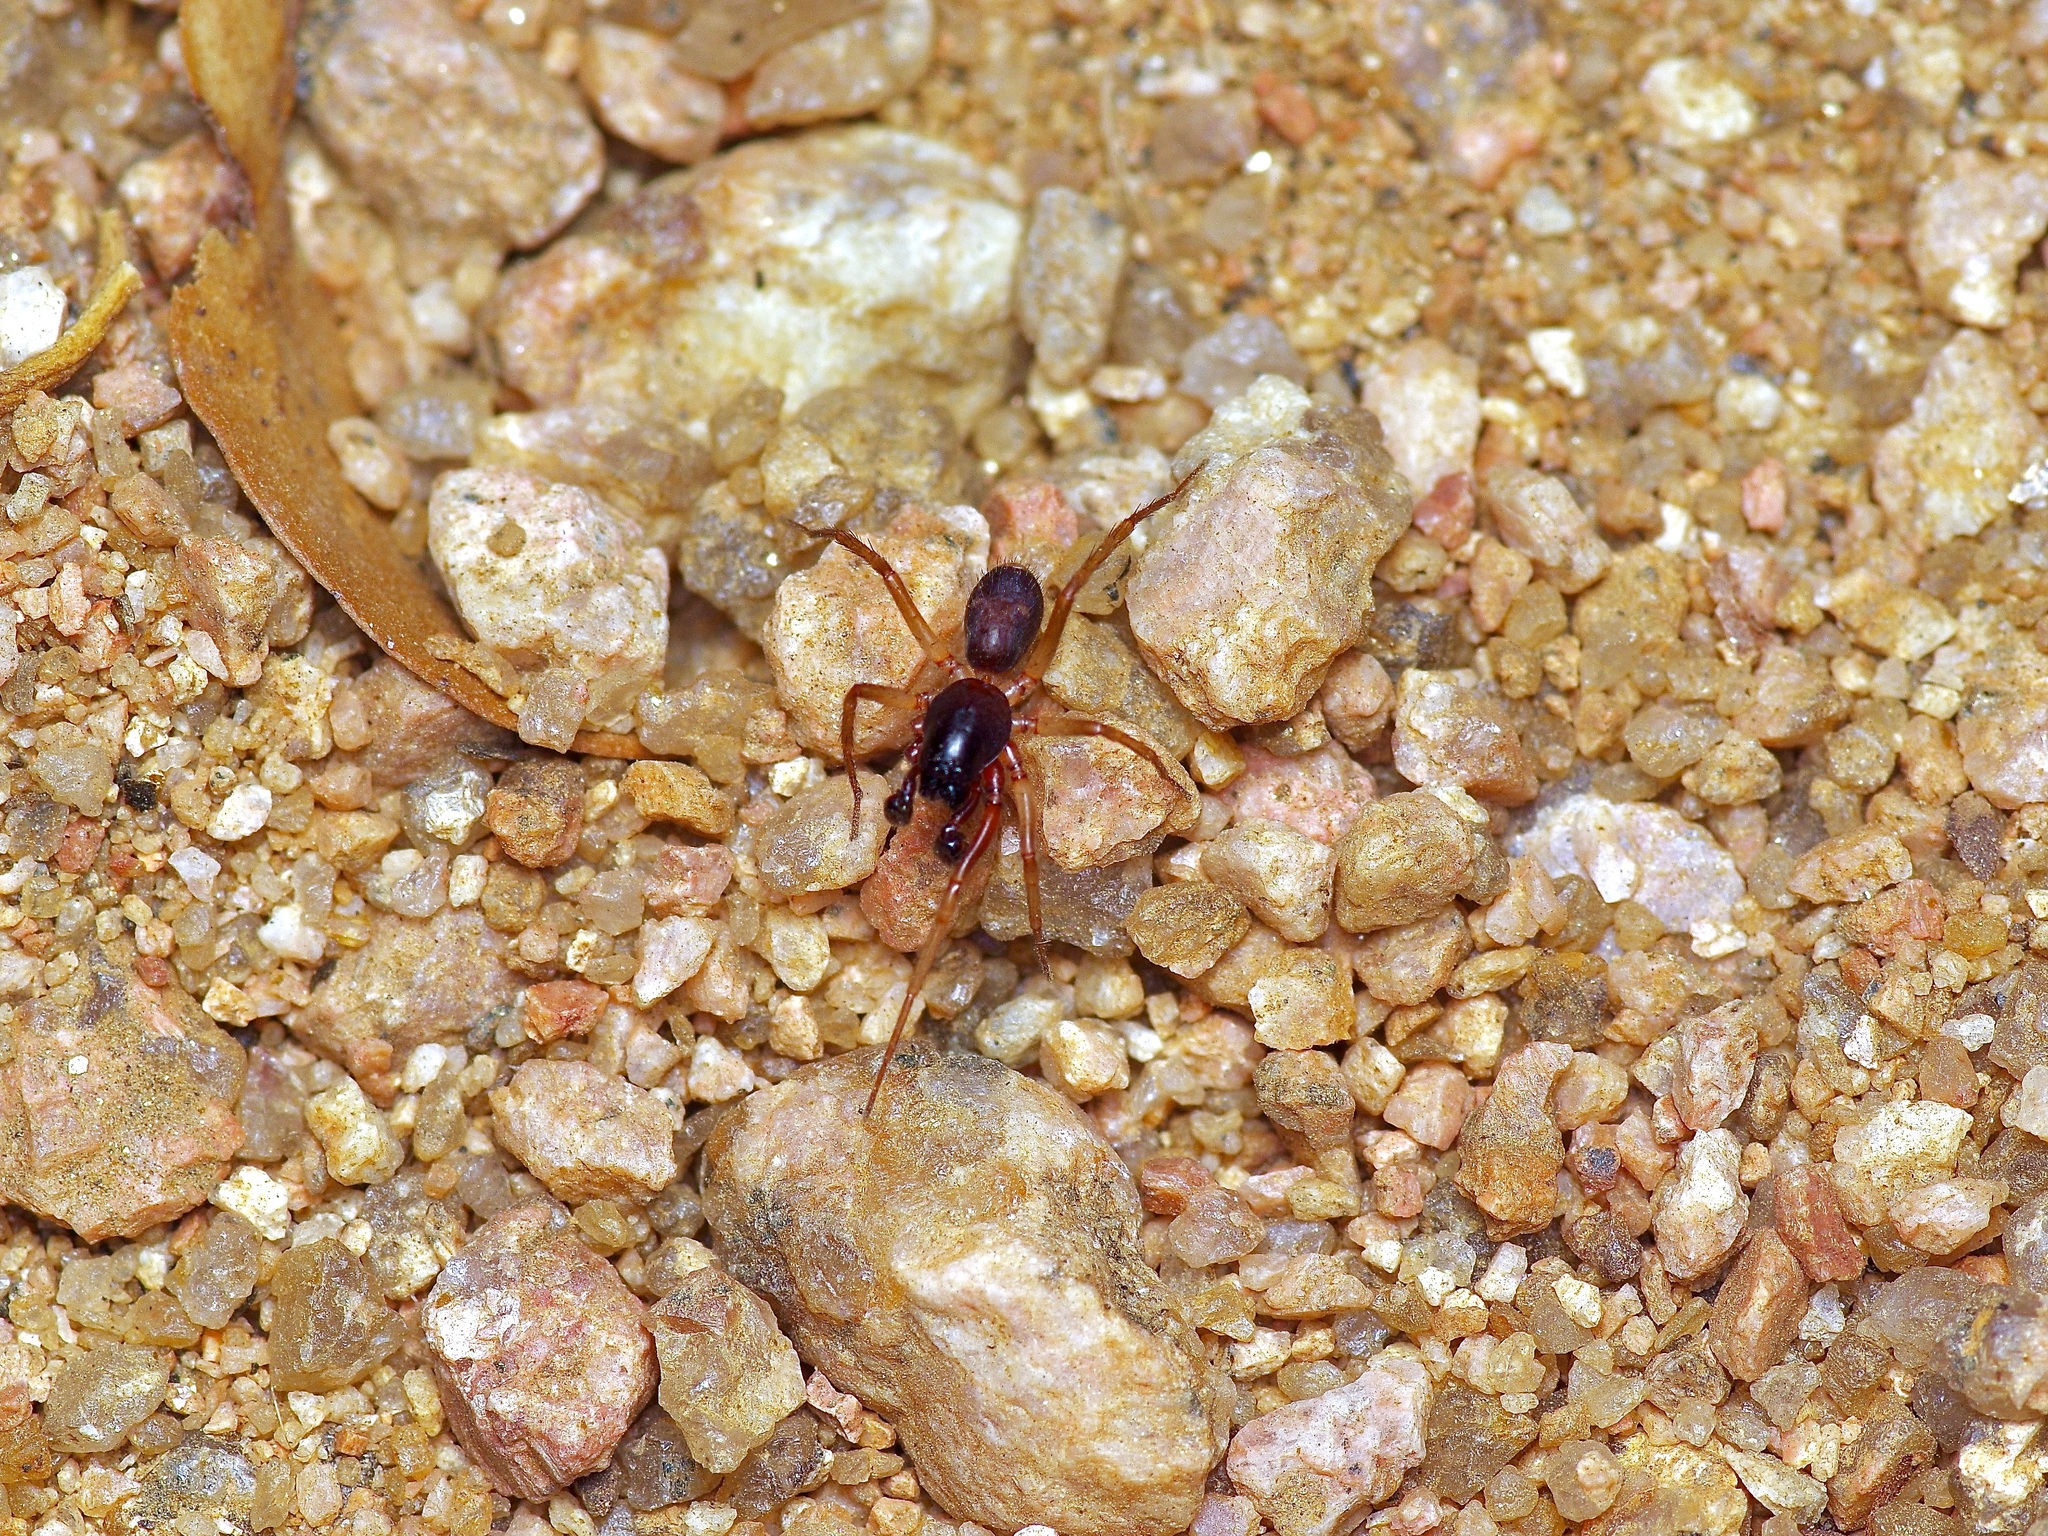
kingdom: Animalia
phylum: Arthropoda
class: Arachnida
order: Araneae
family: Corinnidae
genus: Falconina
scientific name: Falconina gracilis
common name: Antmimic spider
